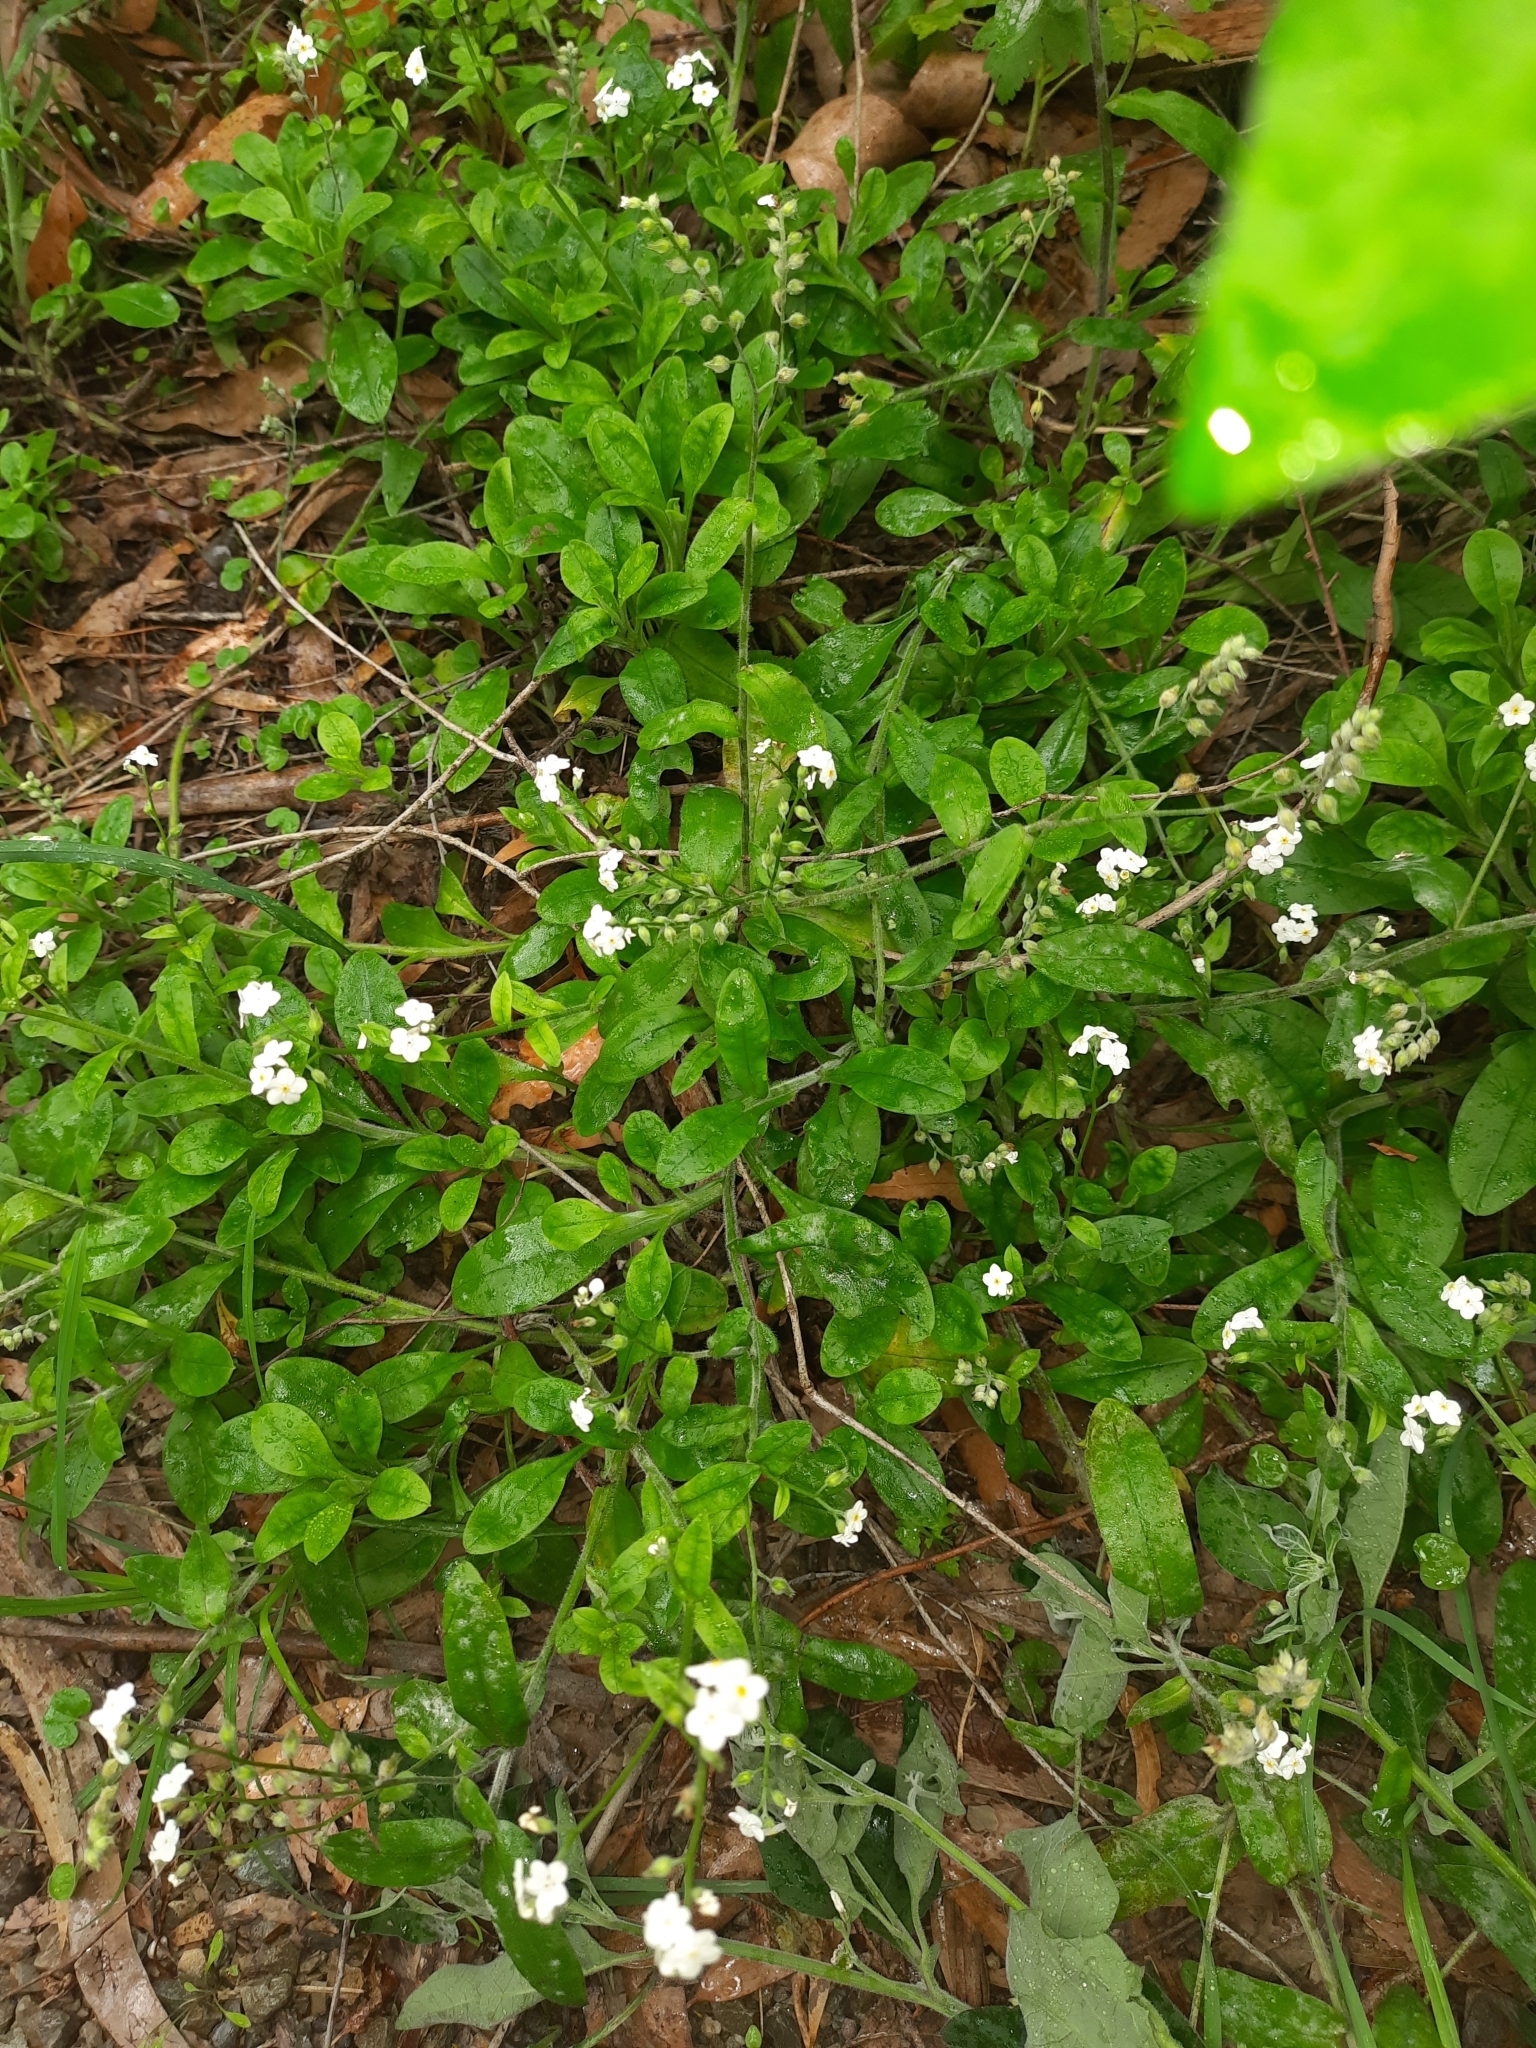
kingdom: Plantae
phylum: Tracheophyta
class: Magnoliopsida
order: Boraginales
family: Boraginaceae
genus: Myosotis
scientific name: Myosotis sylvatica
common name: Wood forget-me-not
